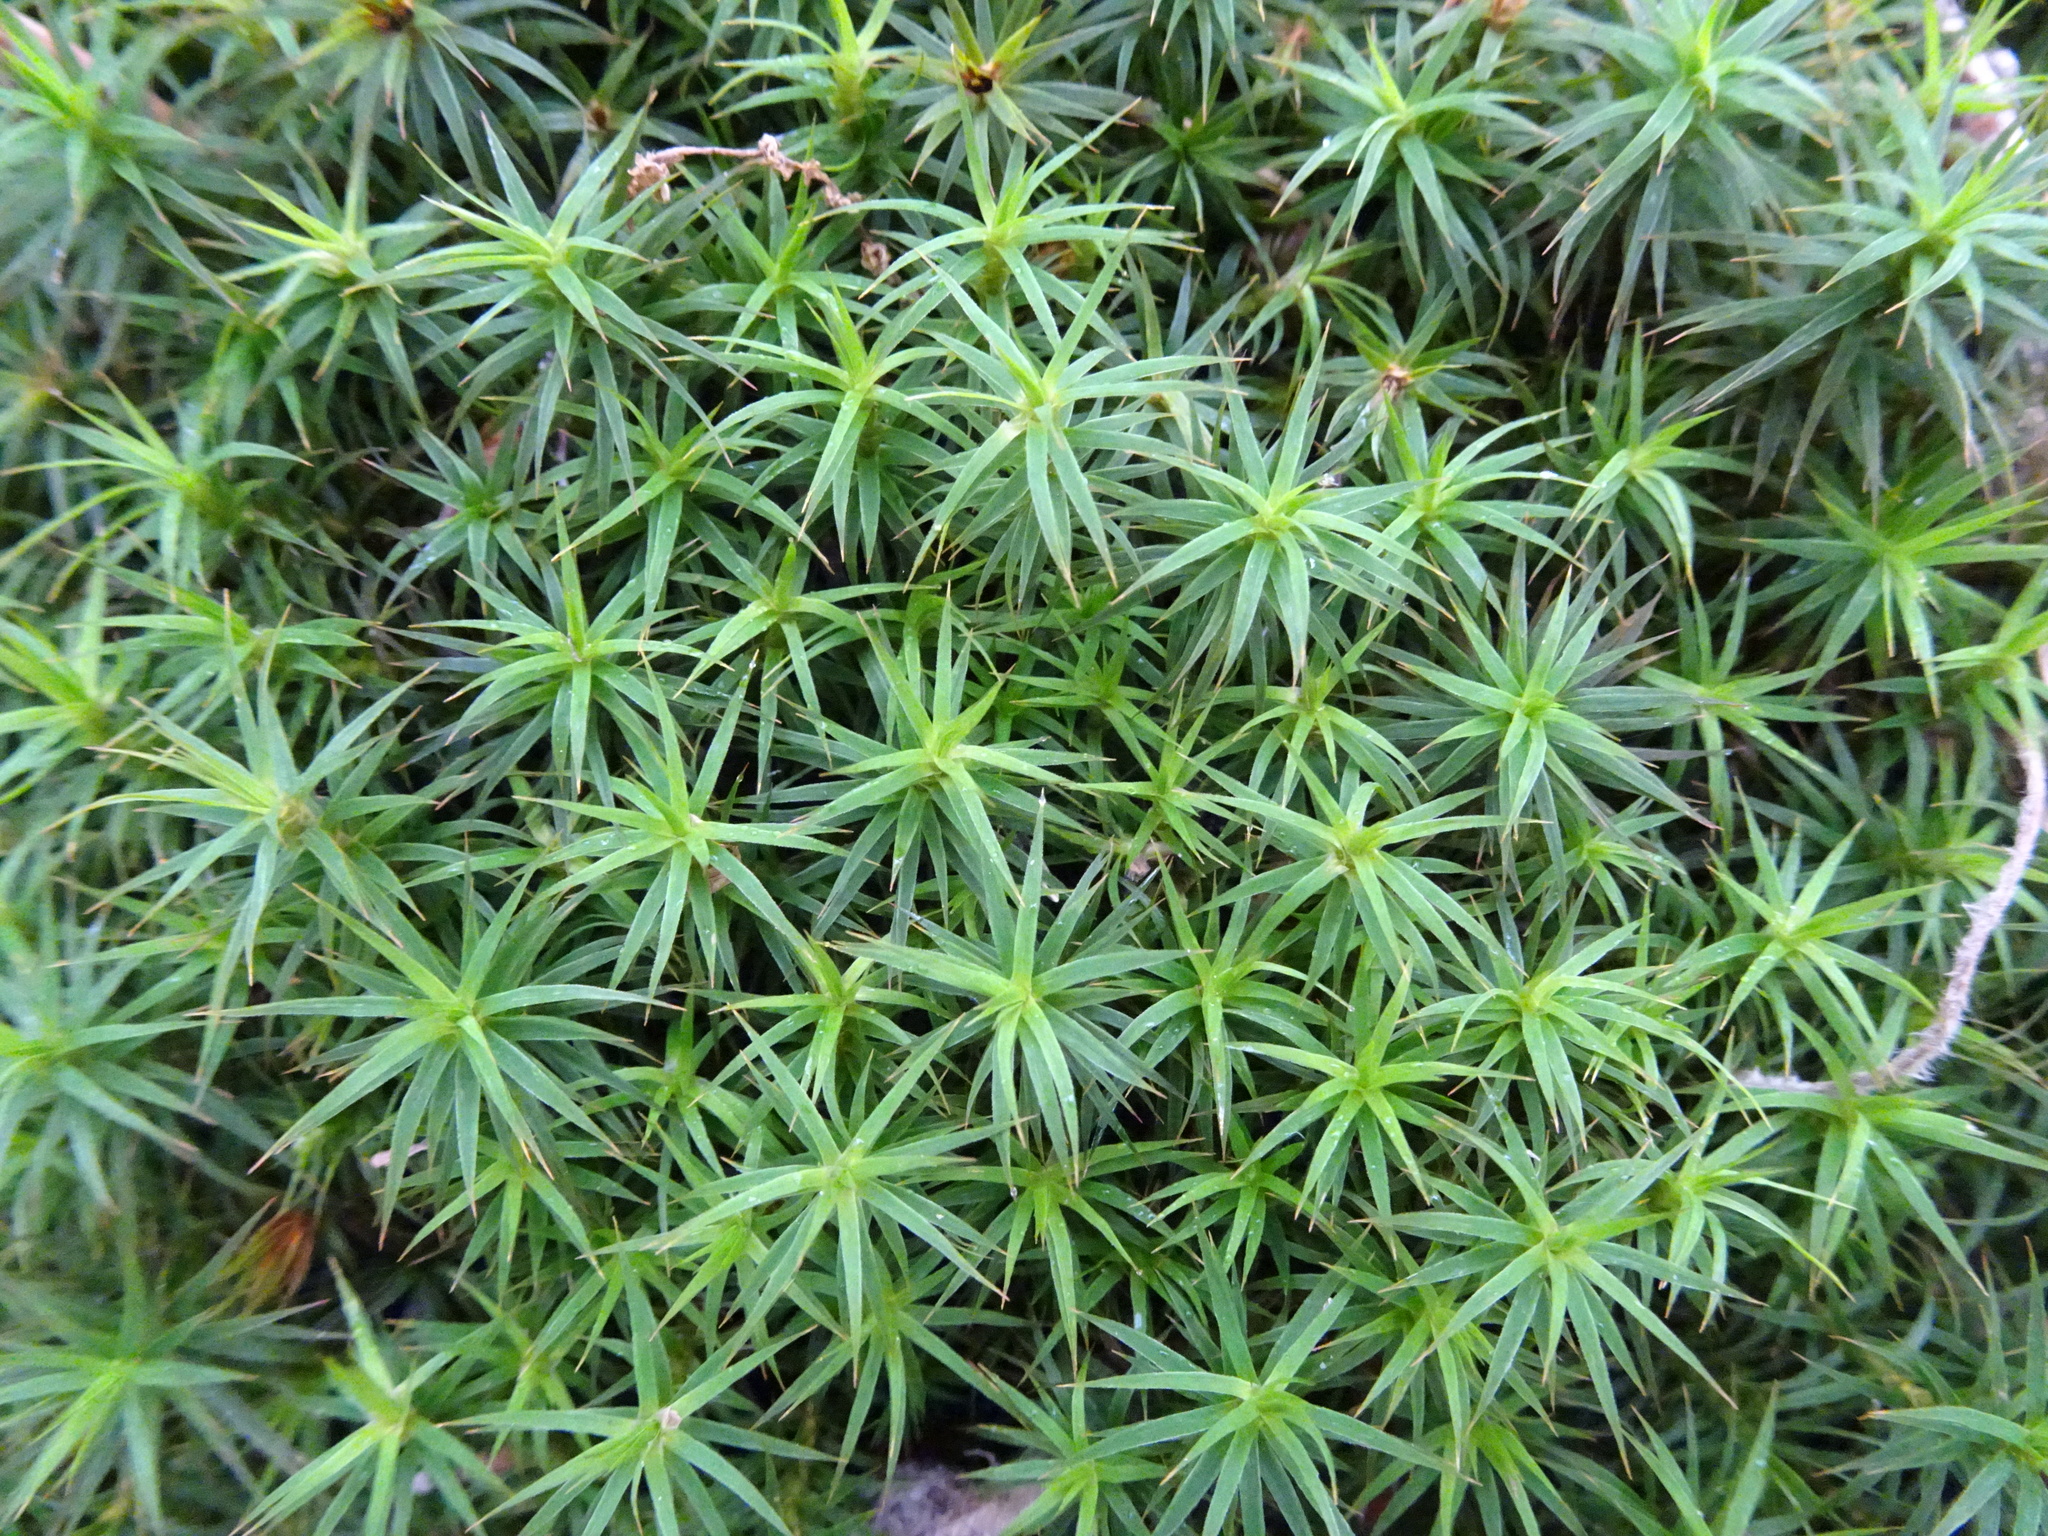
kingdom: Plantae
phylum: Bryophyta
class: Polytrichopsida
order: Polytrichales
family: Polytrichaceae
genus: Polytrichum
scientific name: Polytrichum formosum
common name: Bank haircap moss
